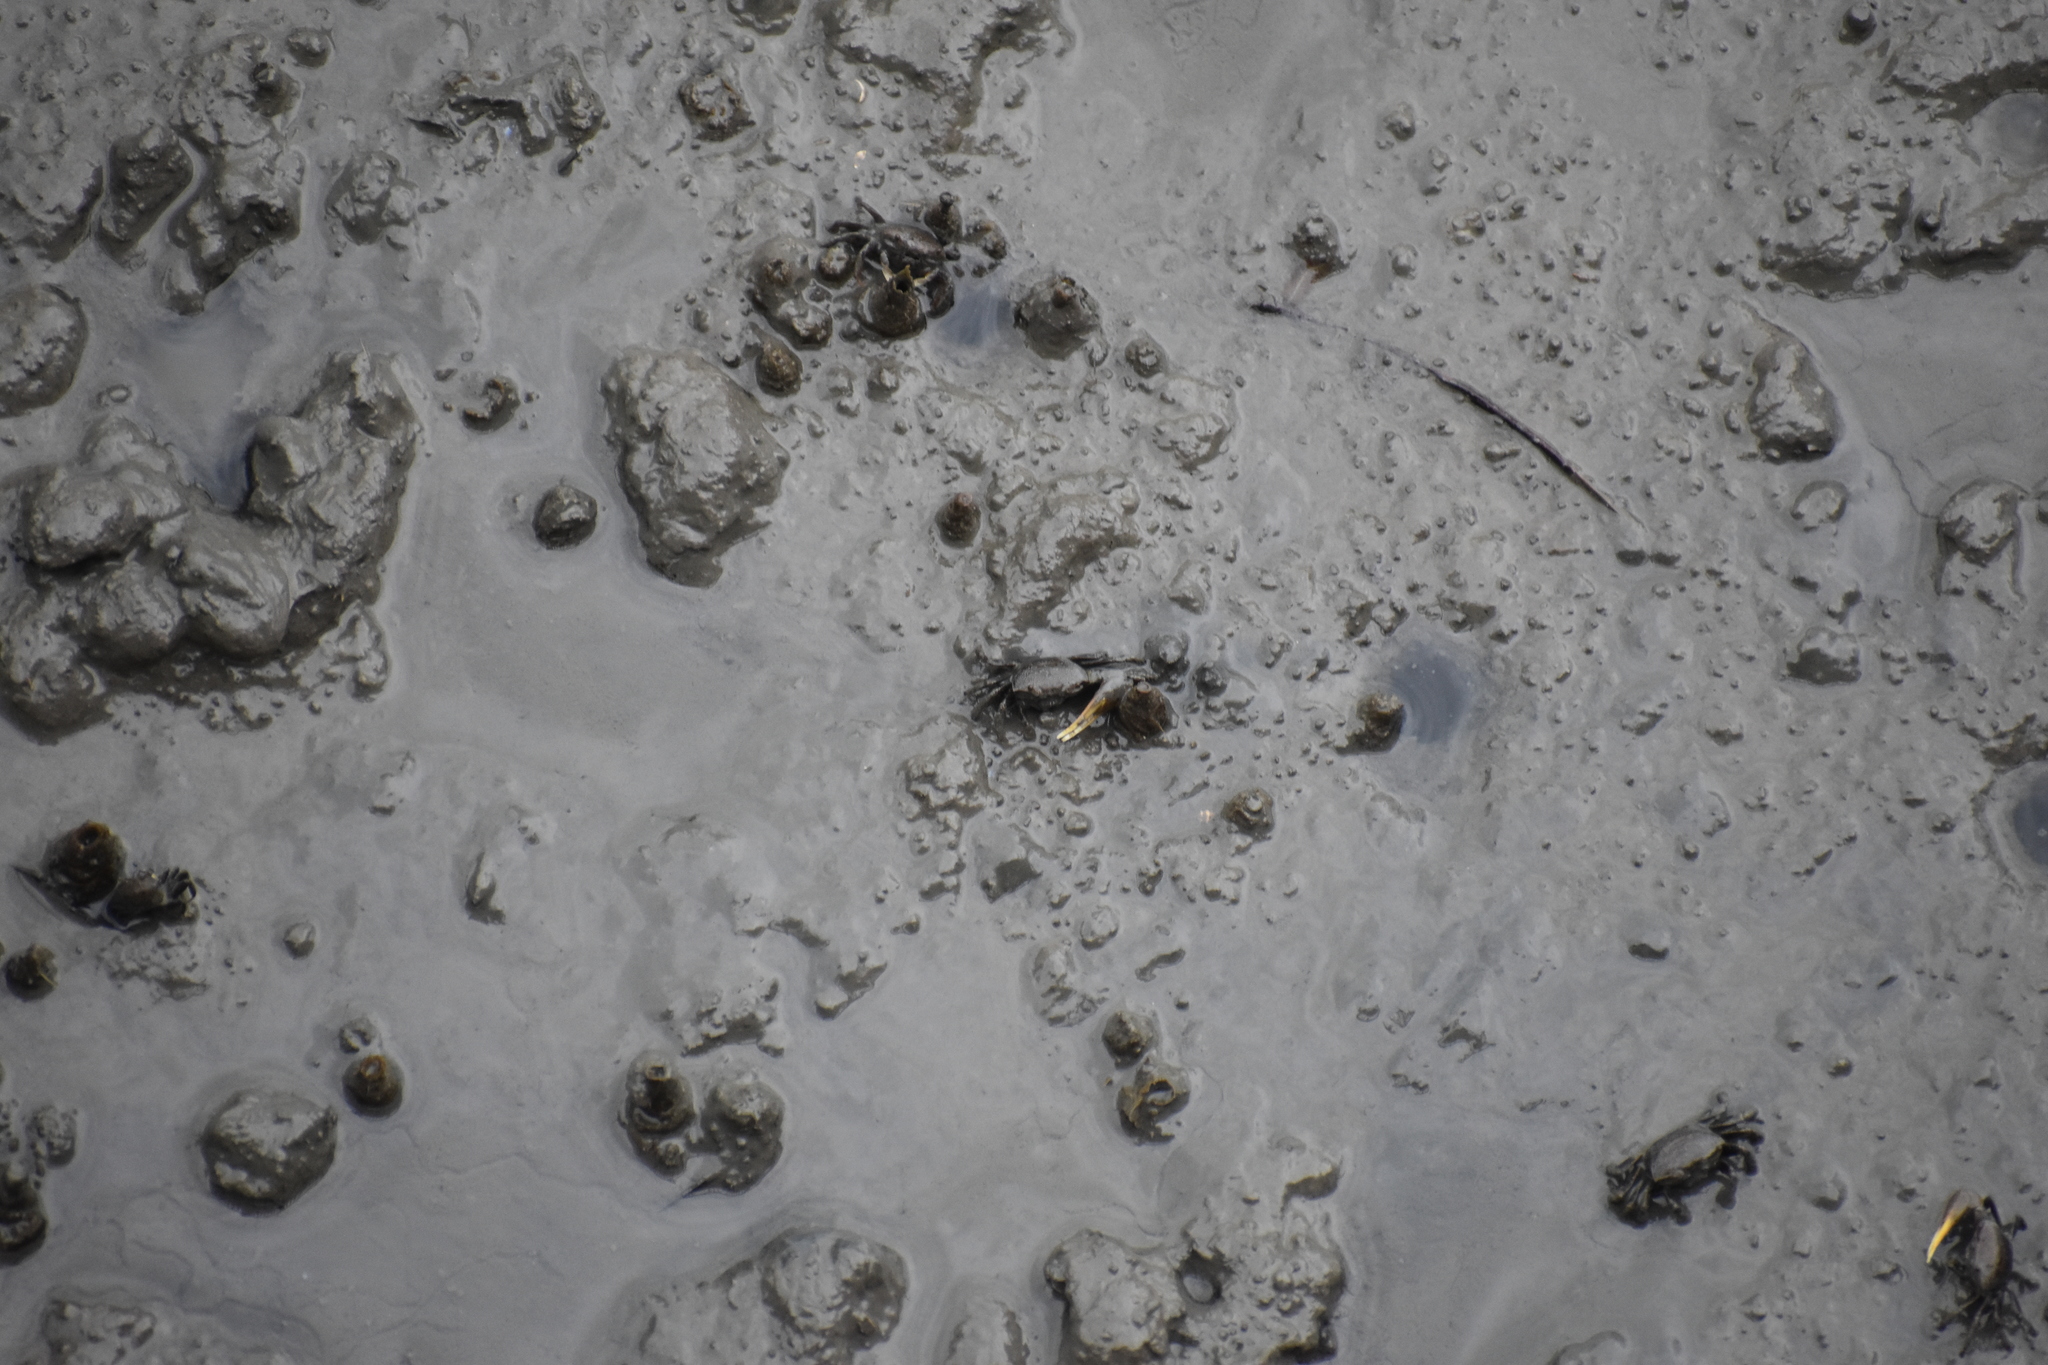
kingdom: Animalia
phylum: Arthropoda
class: Malacostraca
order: Decapoda
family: Ocypodidae
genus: Leptuca
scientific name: Leptuca pugilator
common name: Atlantic sand fiddler crab
